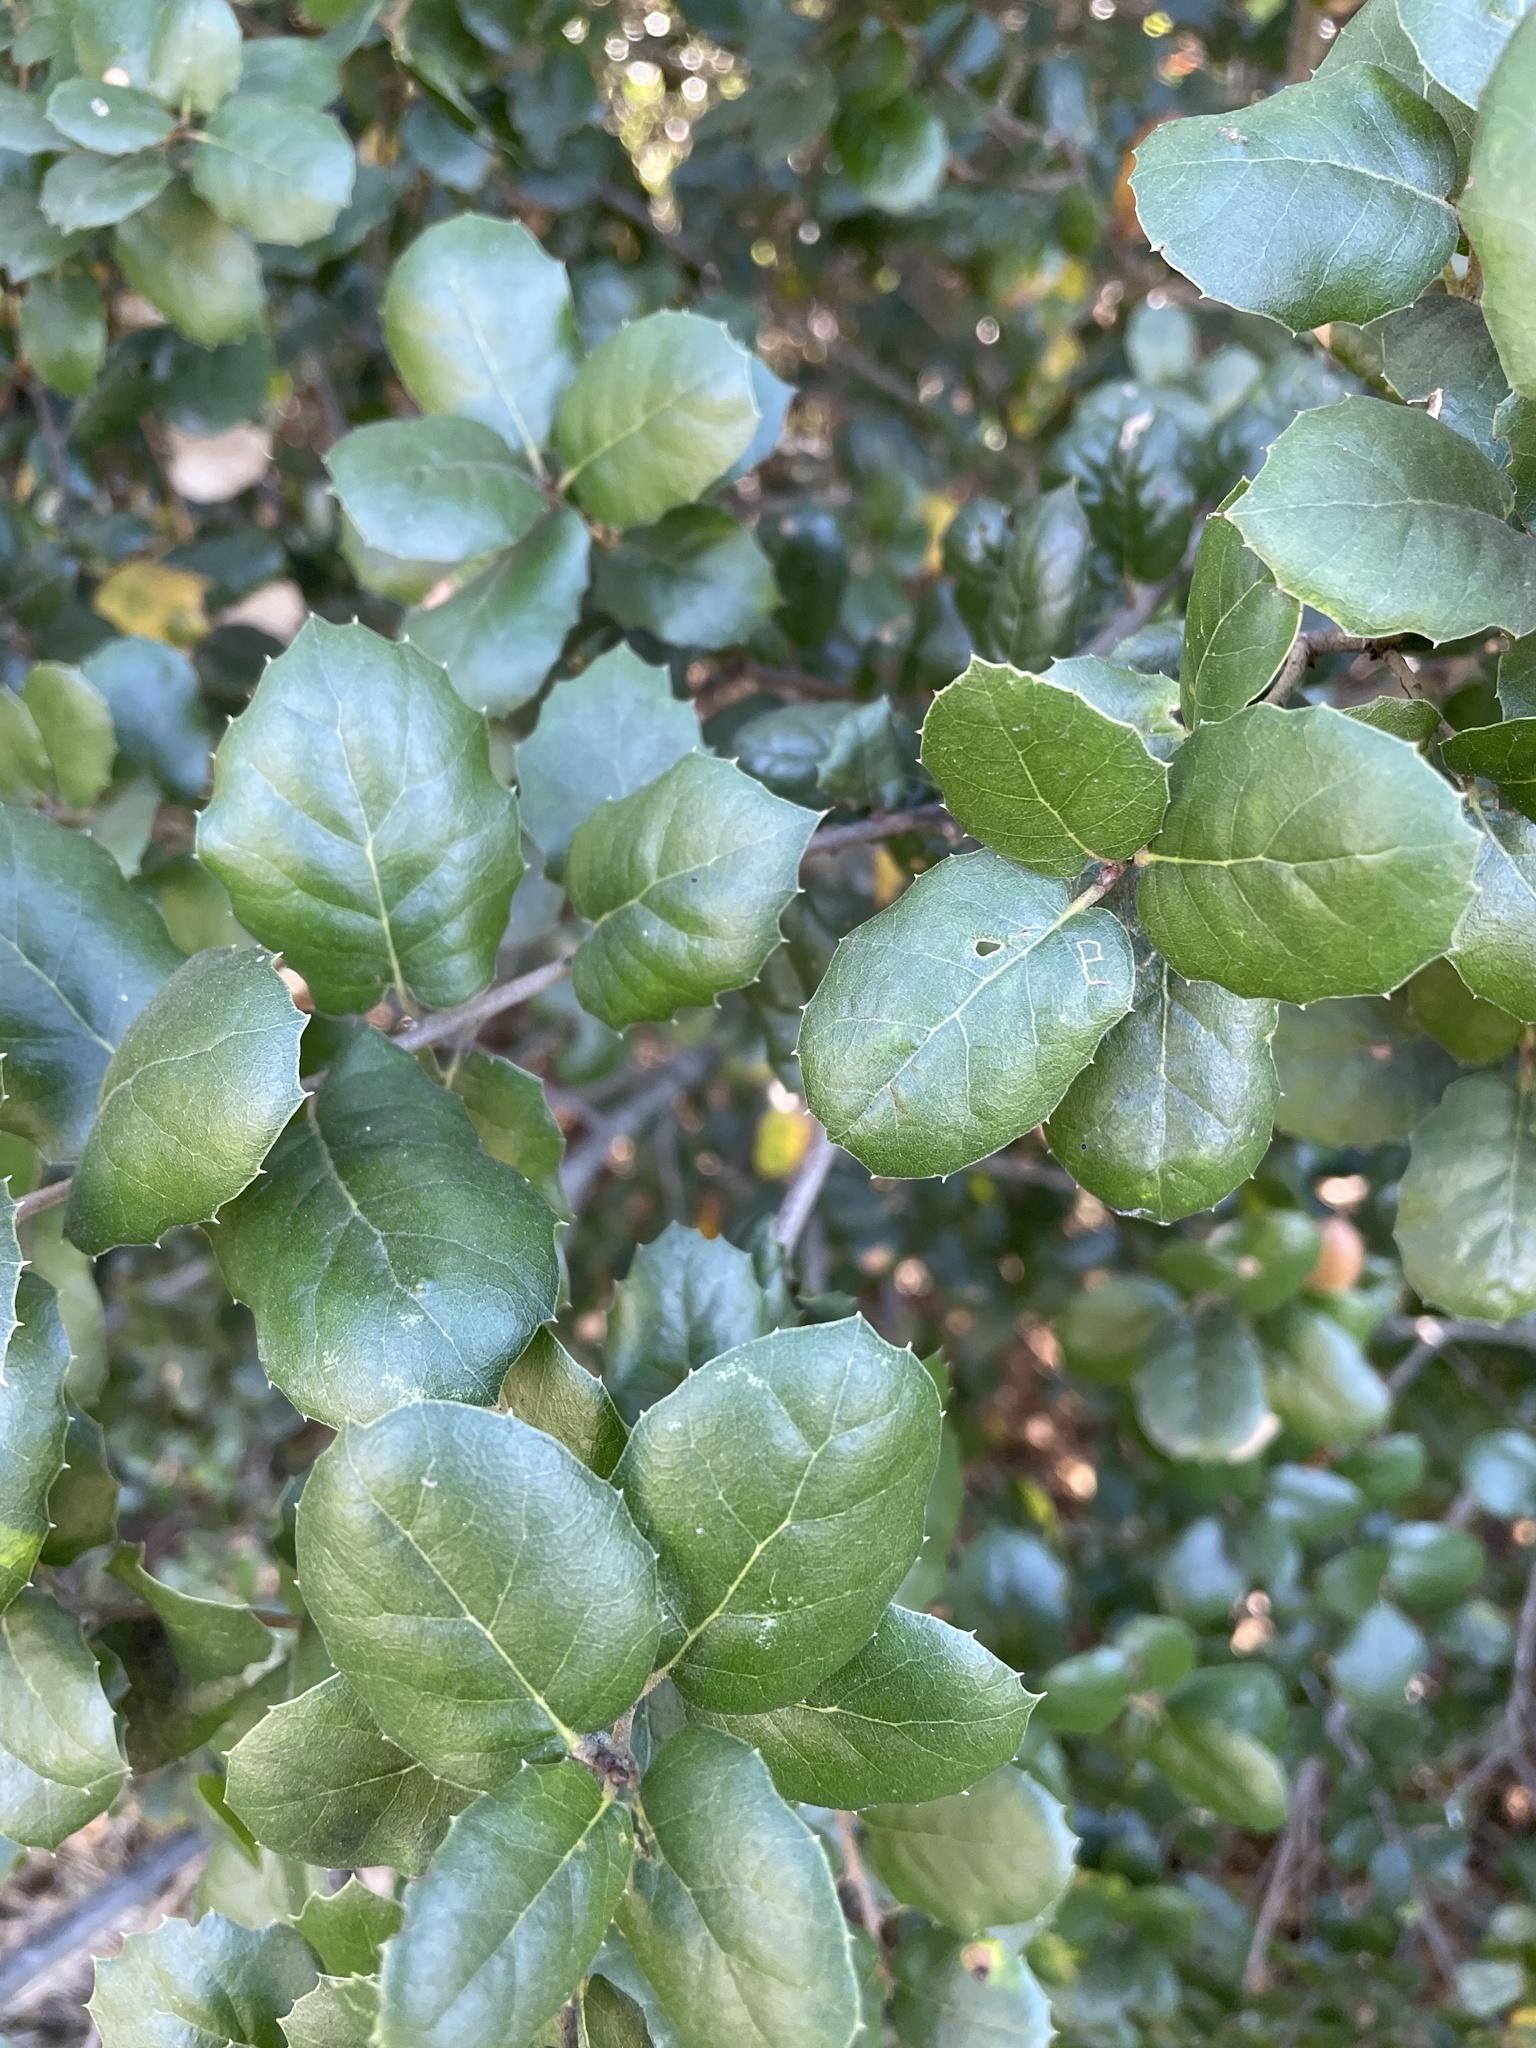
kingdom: Plantae
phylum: Tracheophyta
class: Magnoliopsida
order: Fagales
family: Fagaceae
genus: Quercus
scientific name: Quercus agrifolia
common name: California live oak
